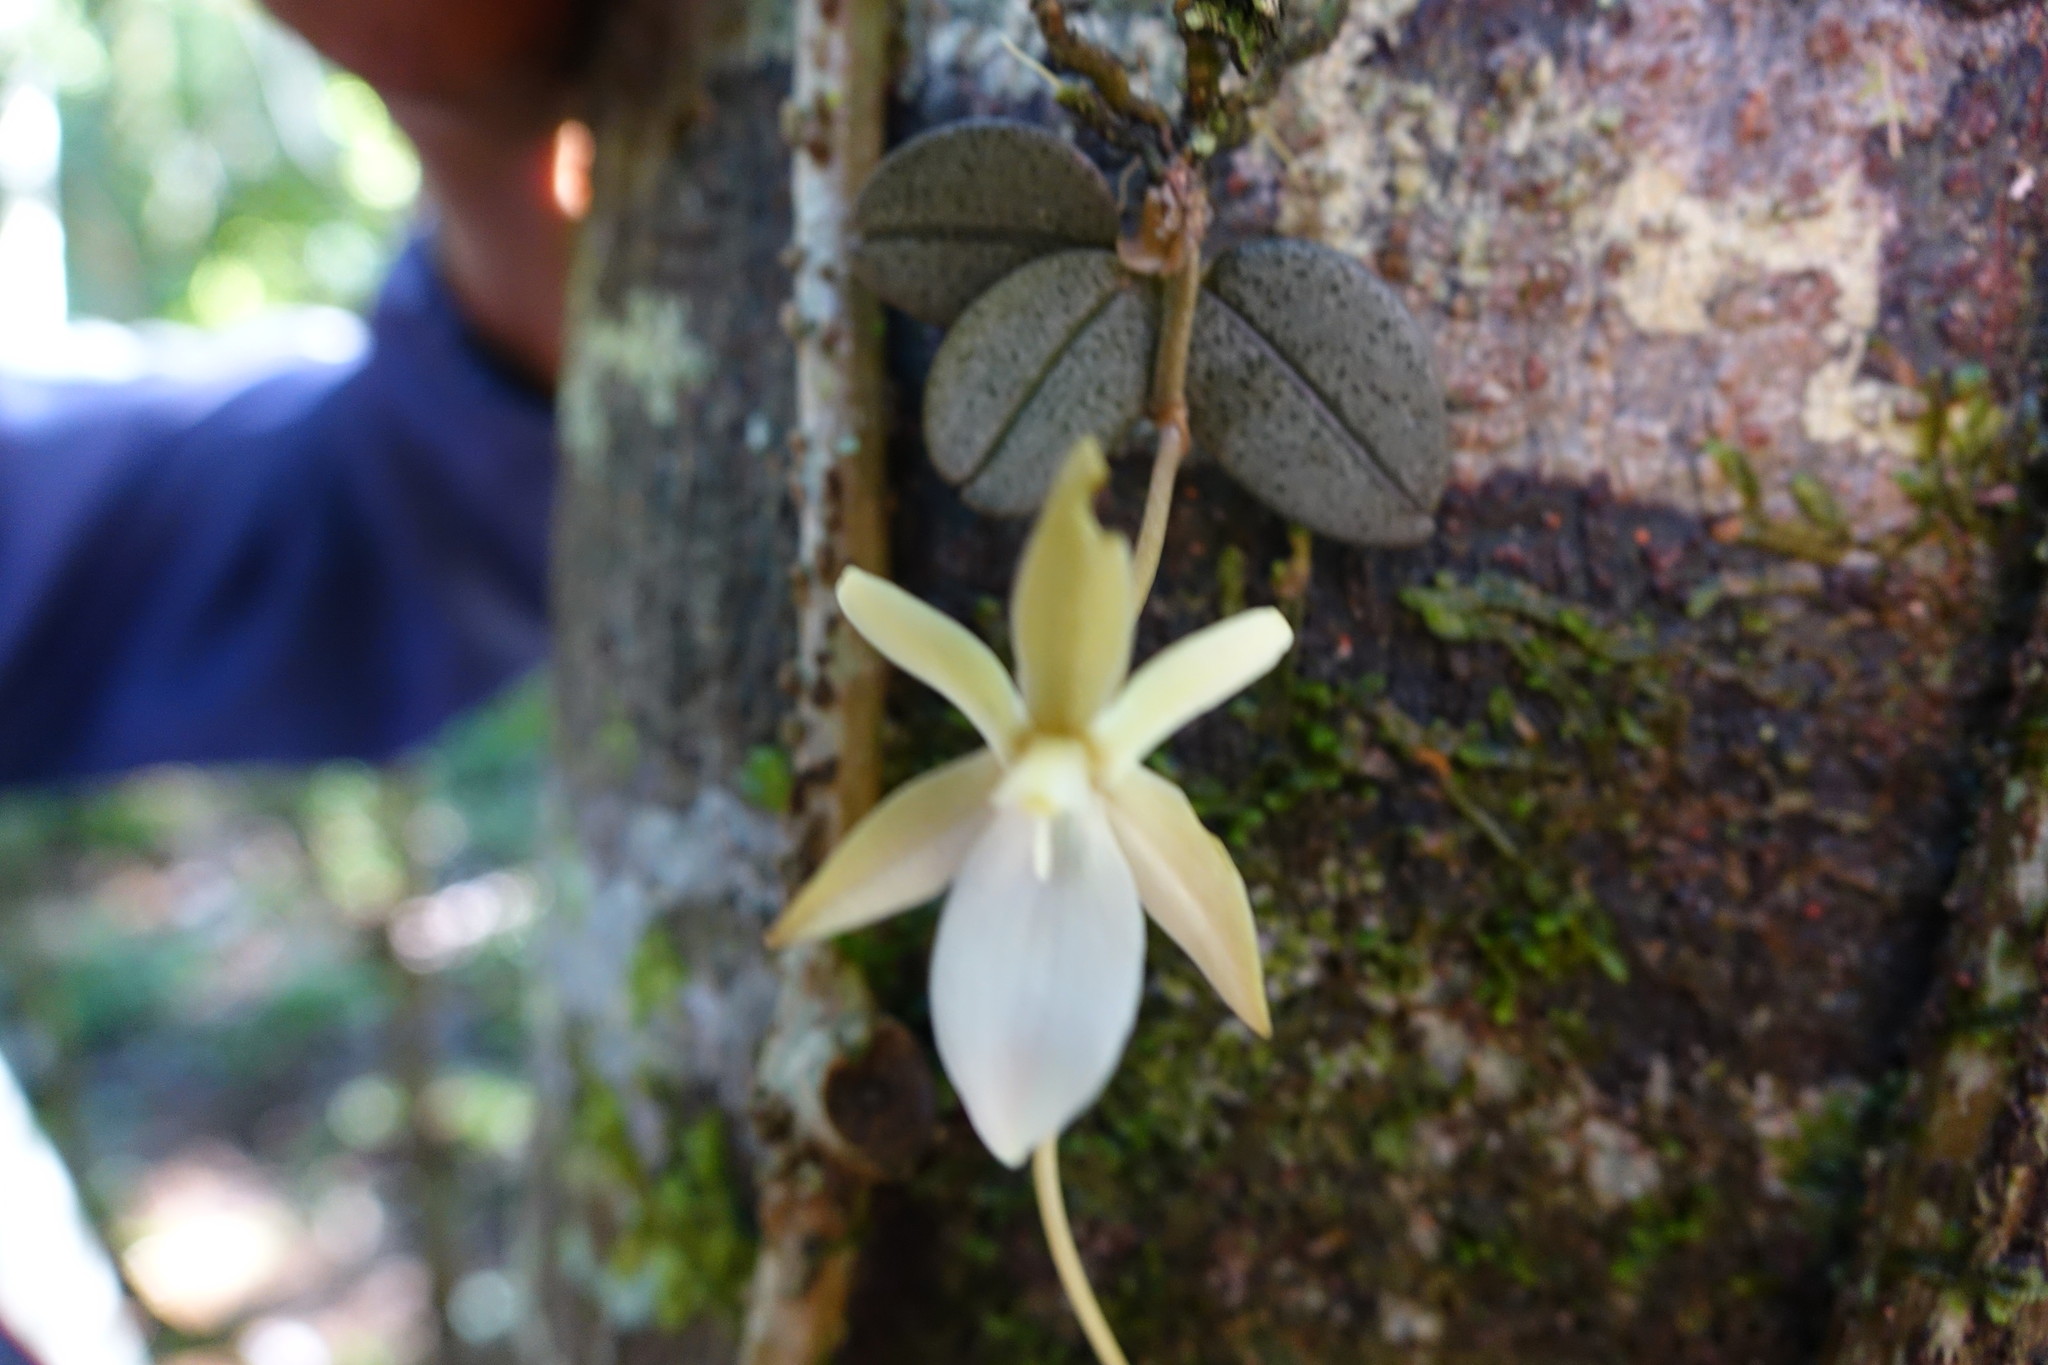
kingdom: Plantae
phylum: Tracheophyta
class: Liliopsida
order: Asparagales
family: Orchidaceae
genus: Aerangis
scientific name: Aerangis punctata
